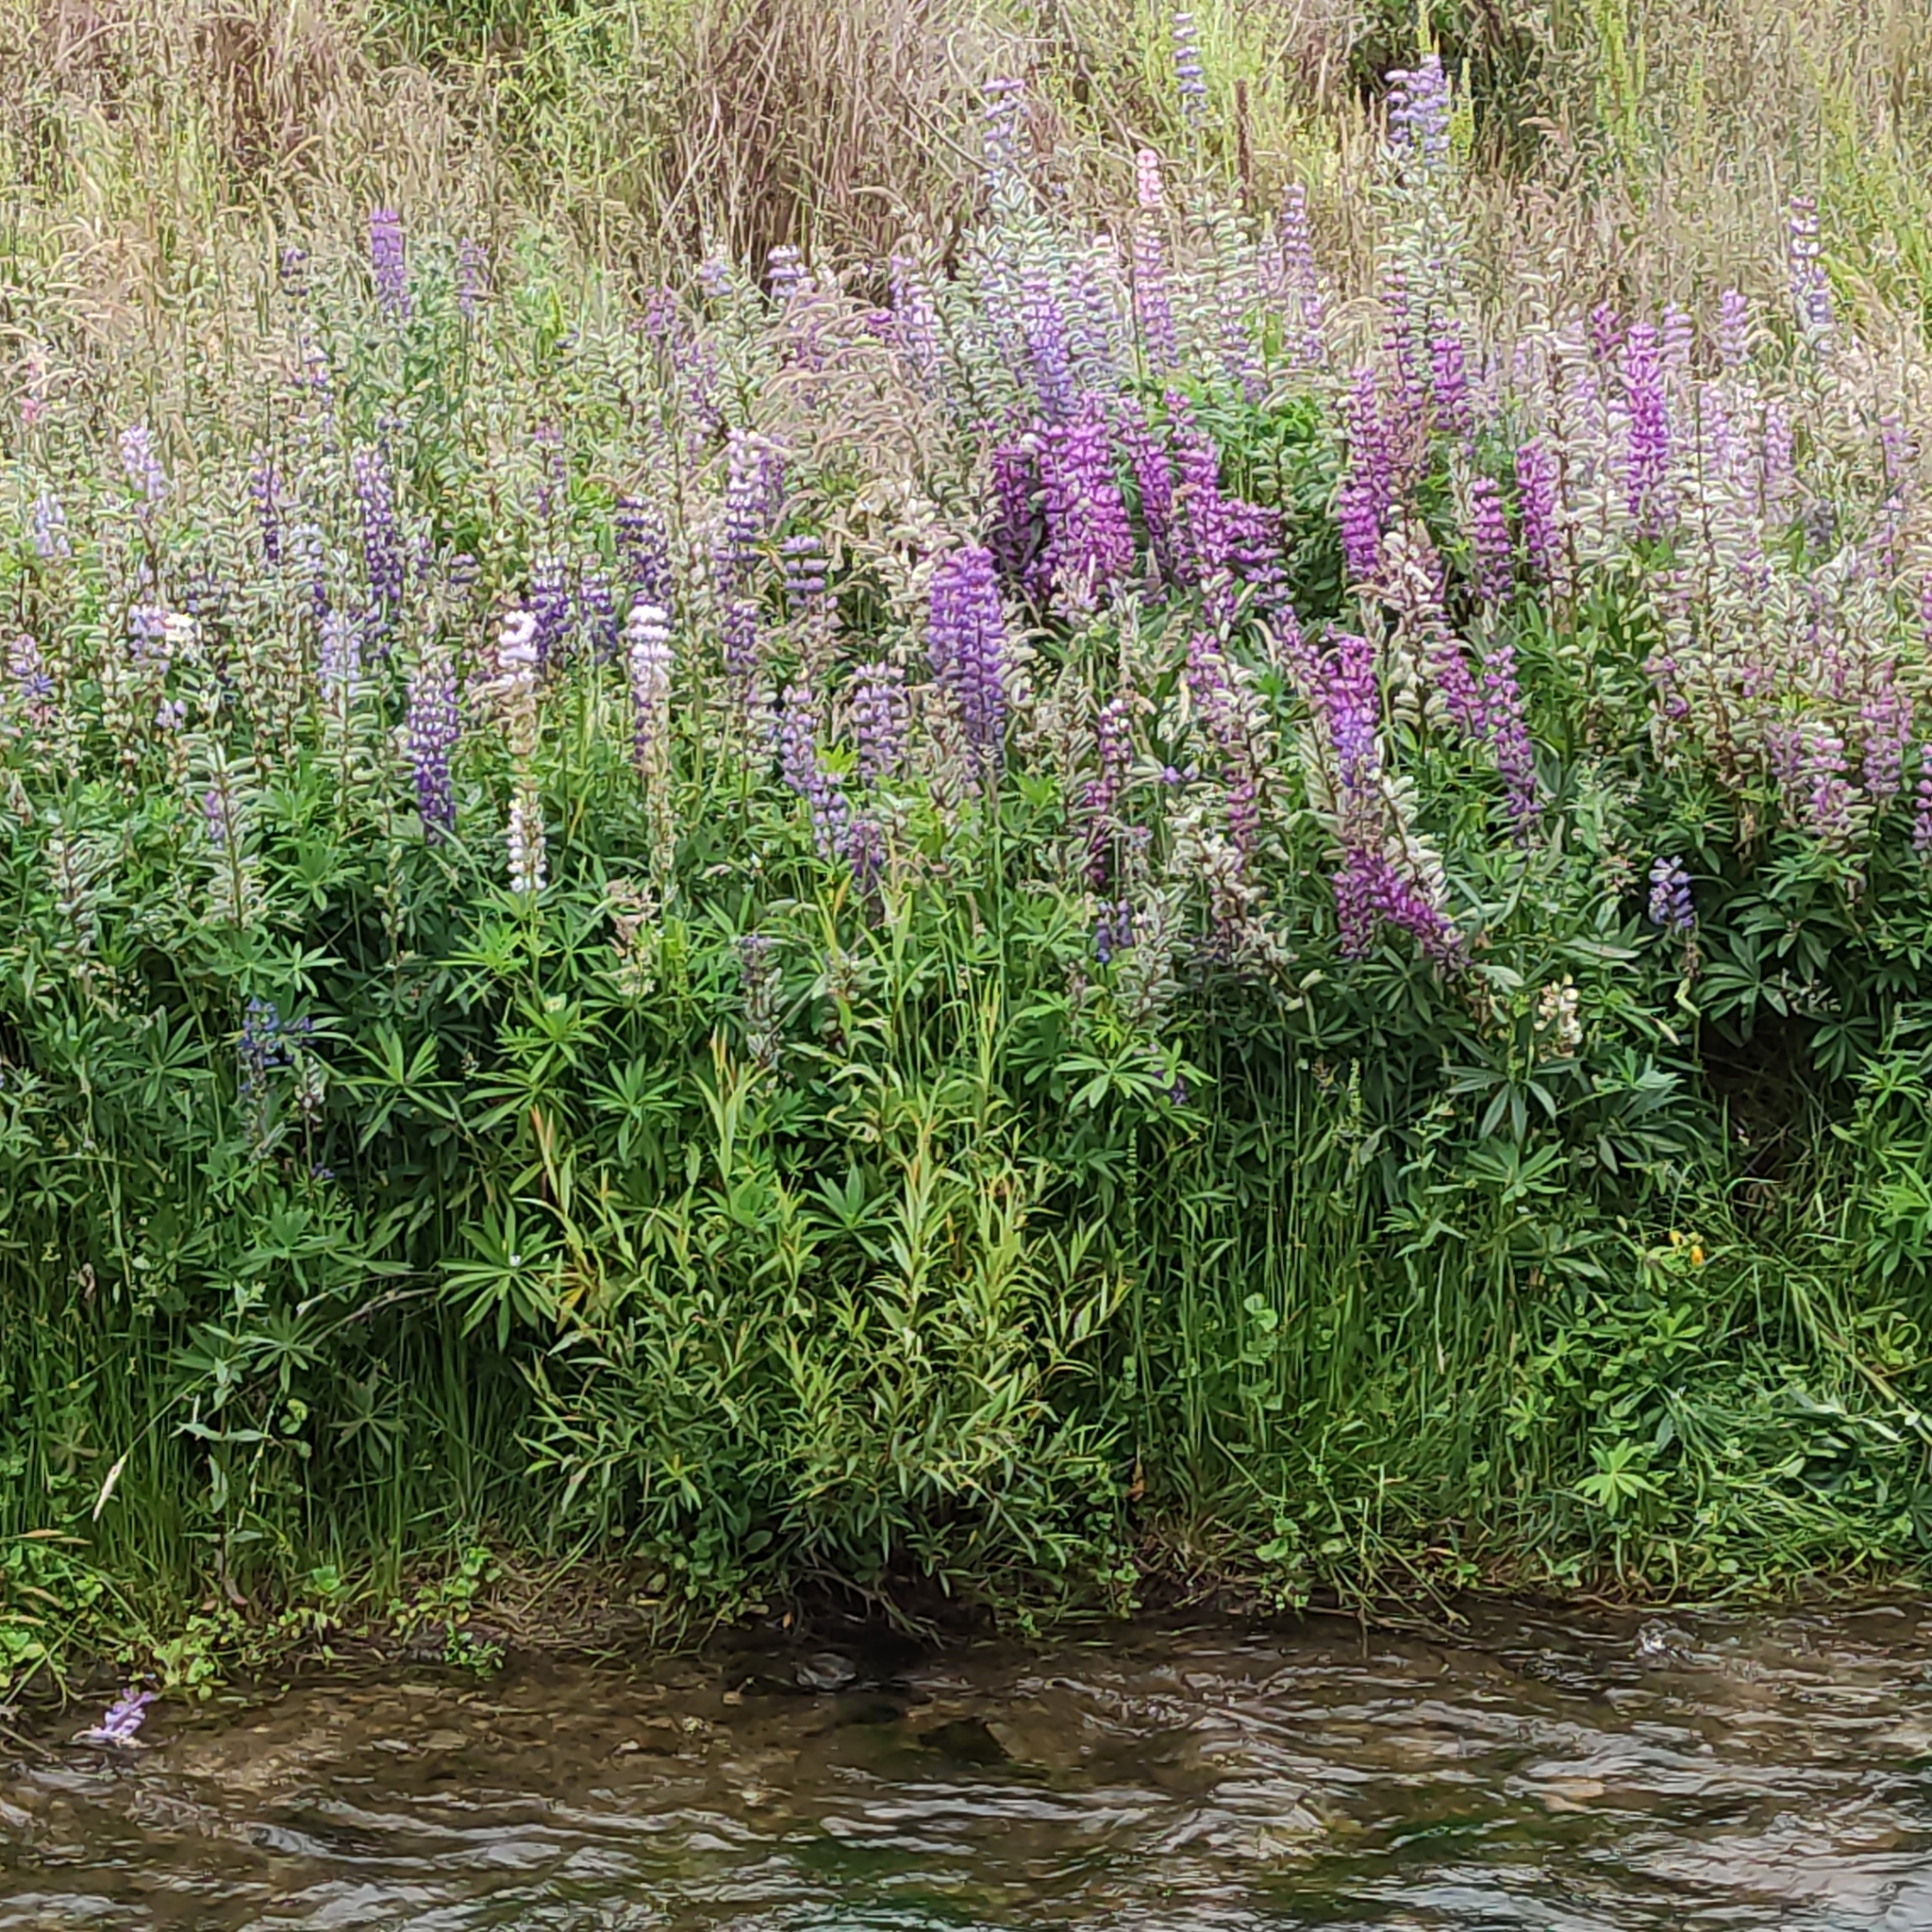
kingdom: Plantae
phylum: Tracheophyta
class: Magnoliopsida
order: Fabales
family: Fabaceae
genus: Lupinus
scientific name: Lupinus polyphyllus
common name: Garden lupin
